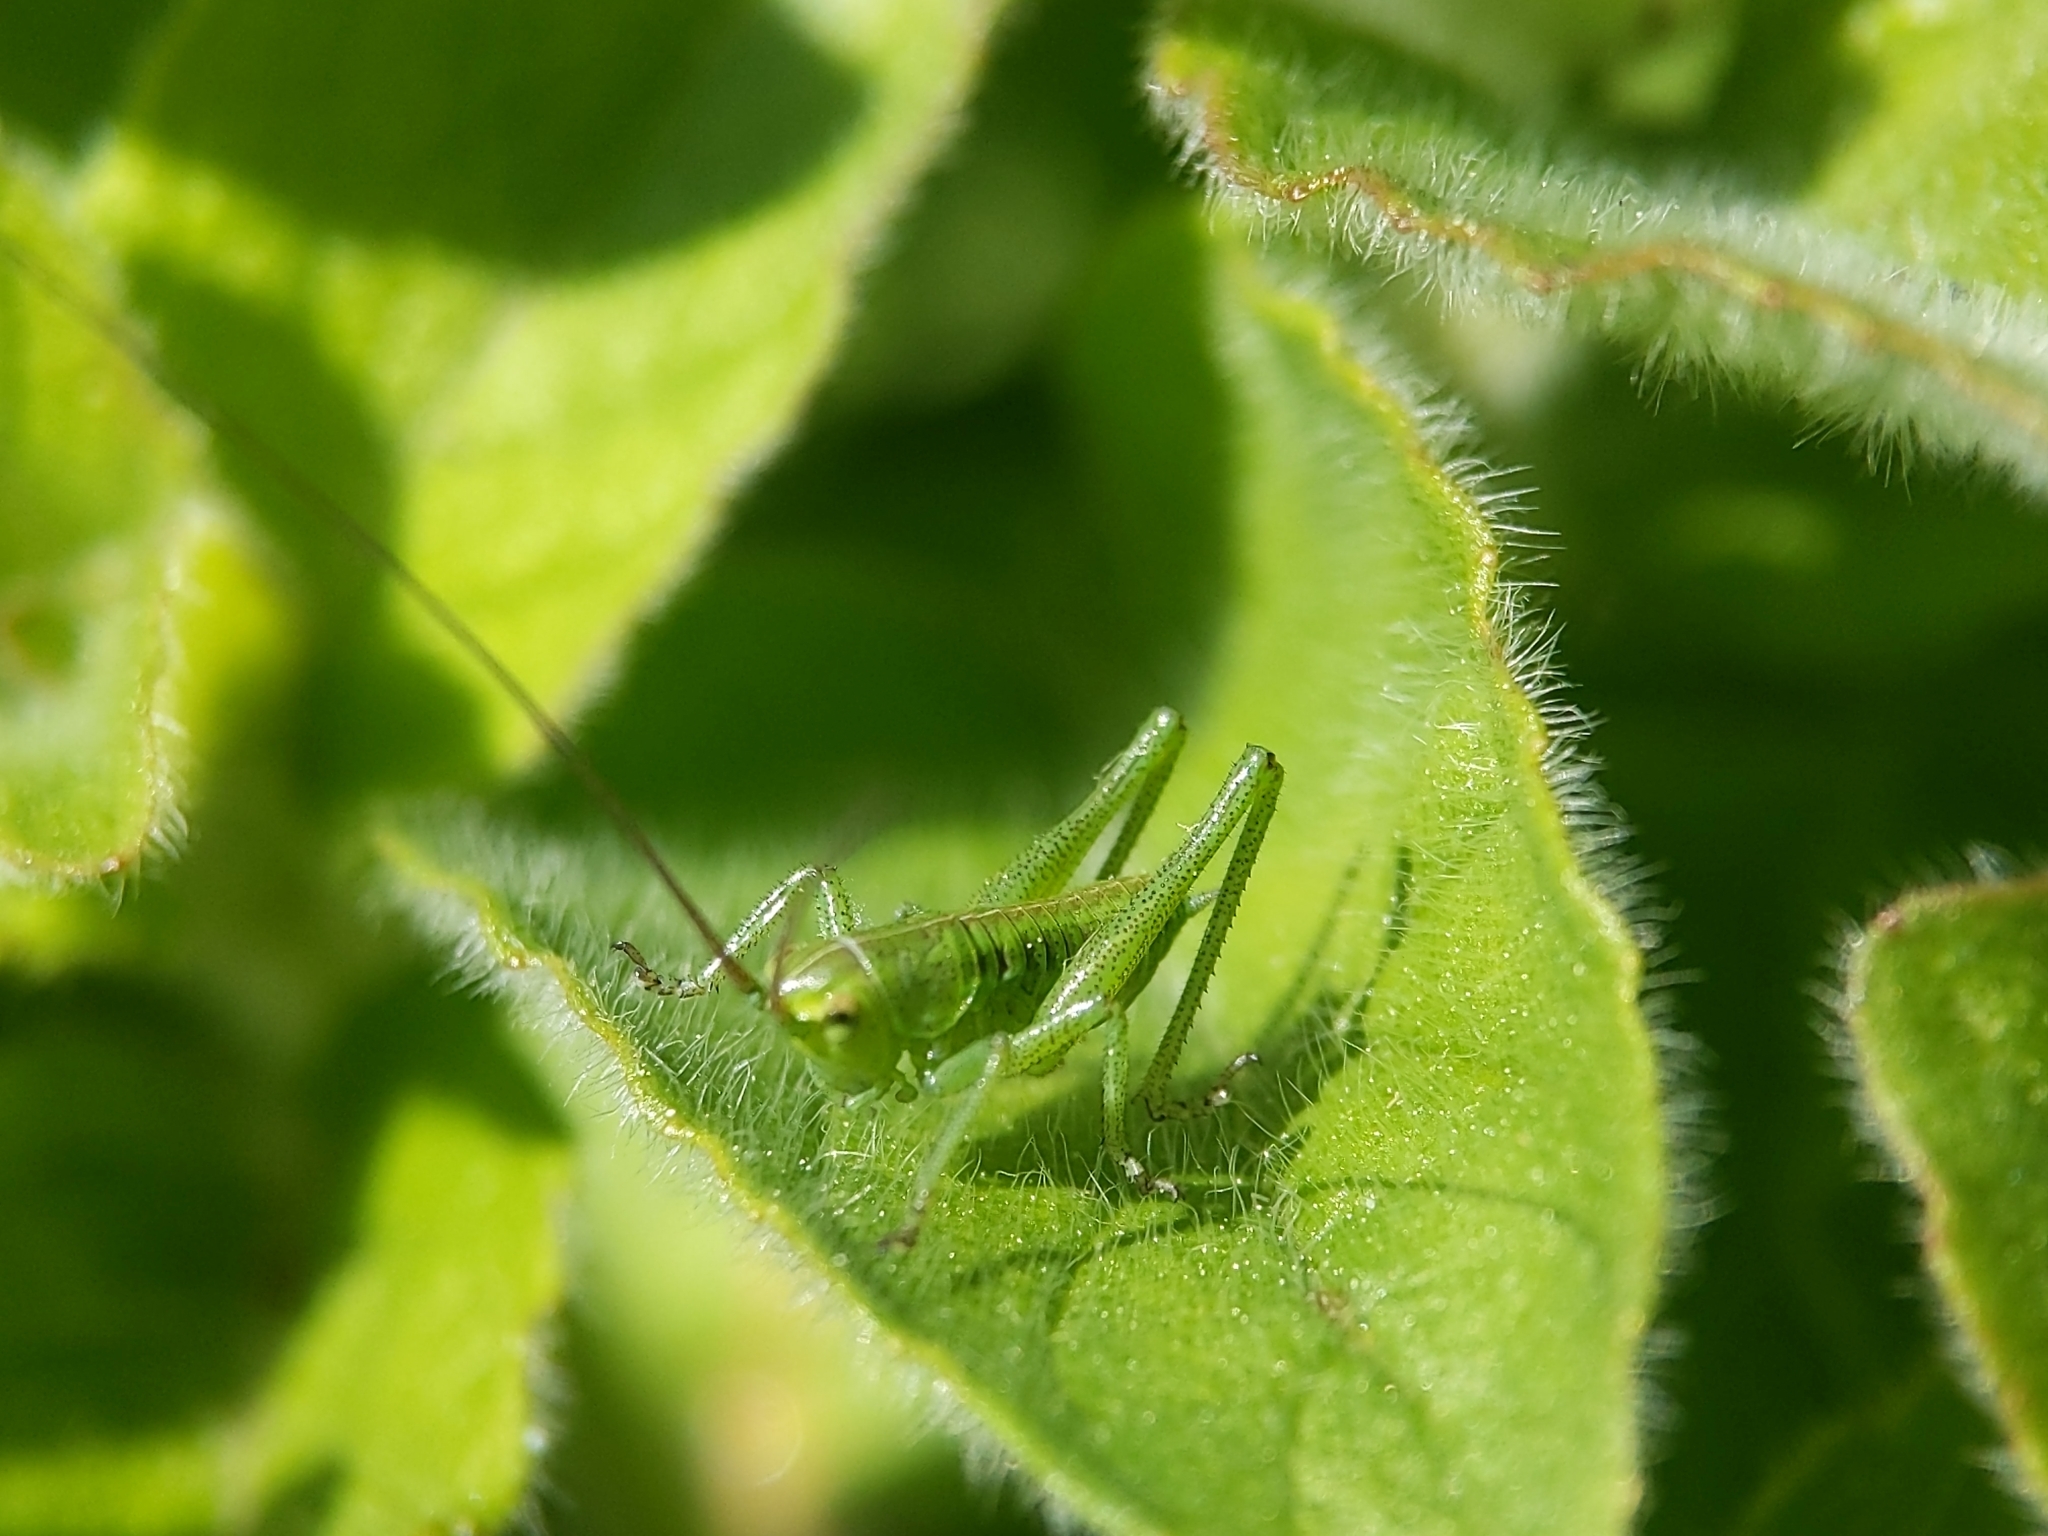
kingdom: Animalia
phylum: Arthropoda
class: Insecta
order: Orthoptera
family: Tettigoniidae
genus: Tettigonia
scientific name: Tettigonia viridissima
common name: Great green bush-cricket
